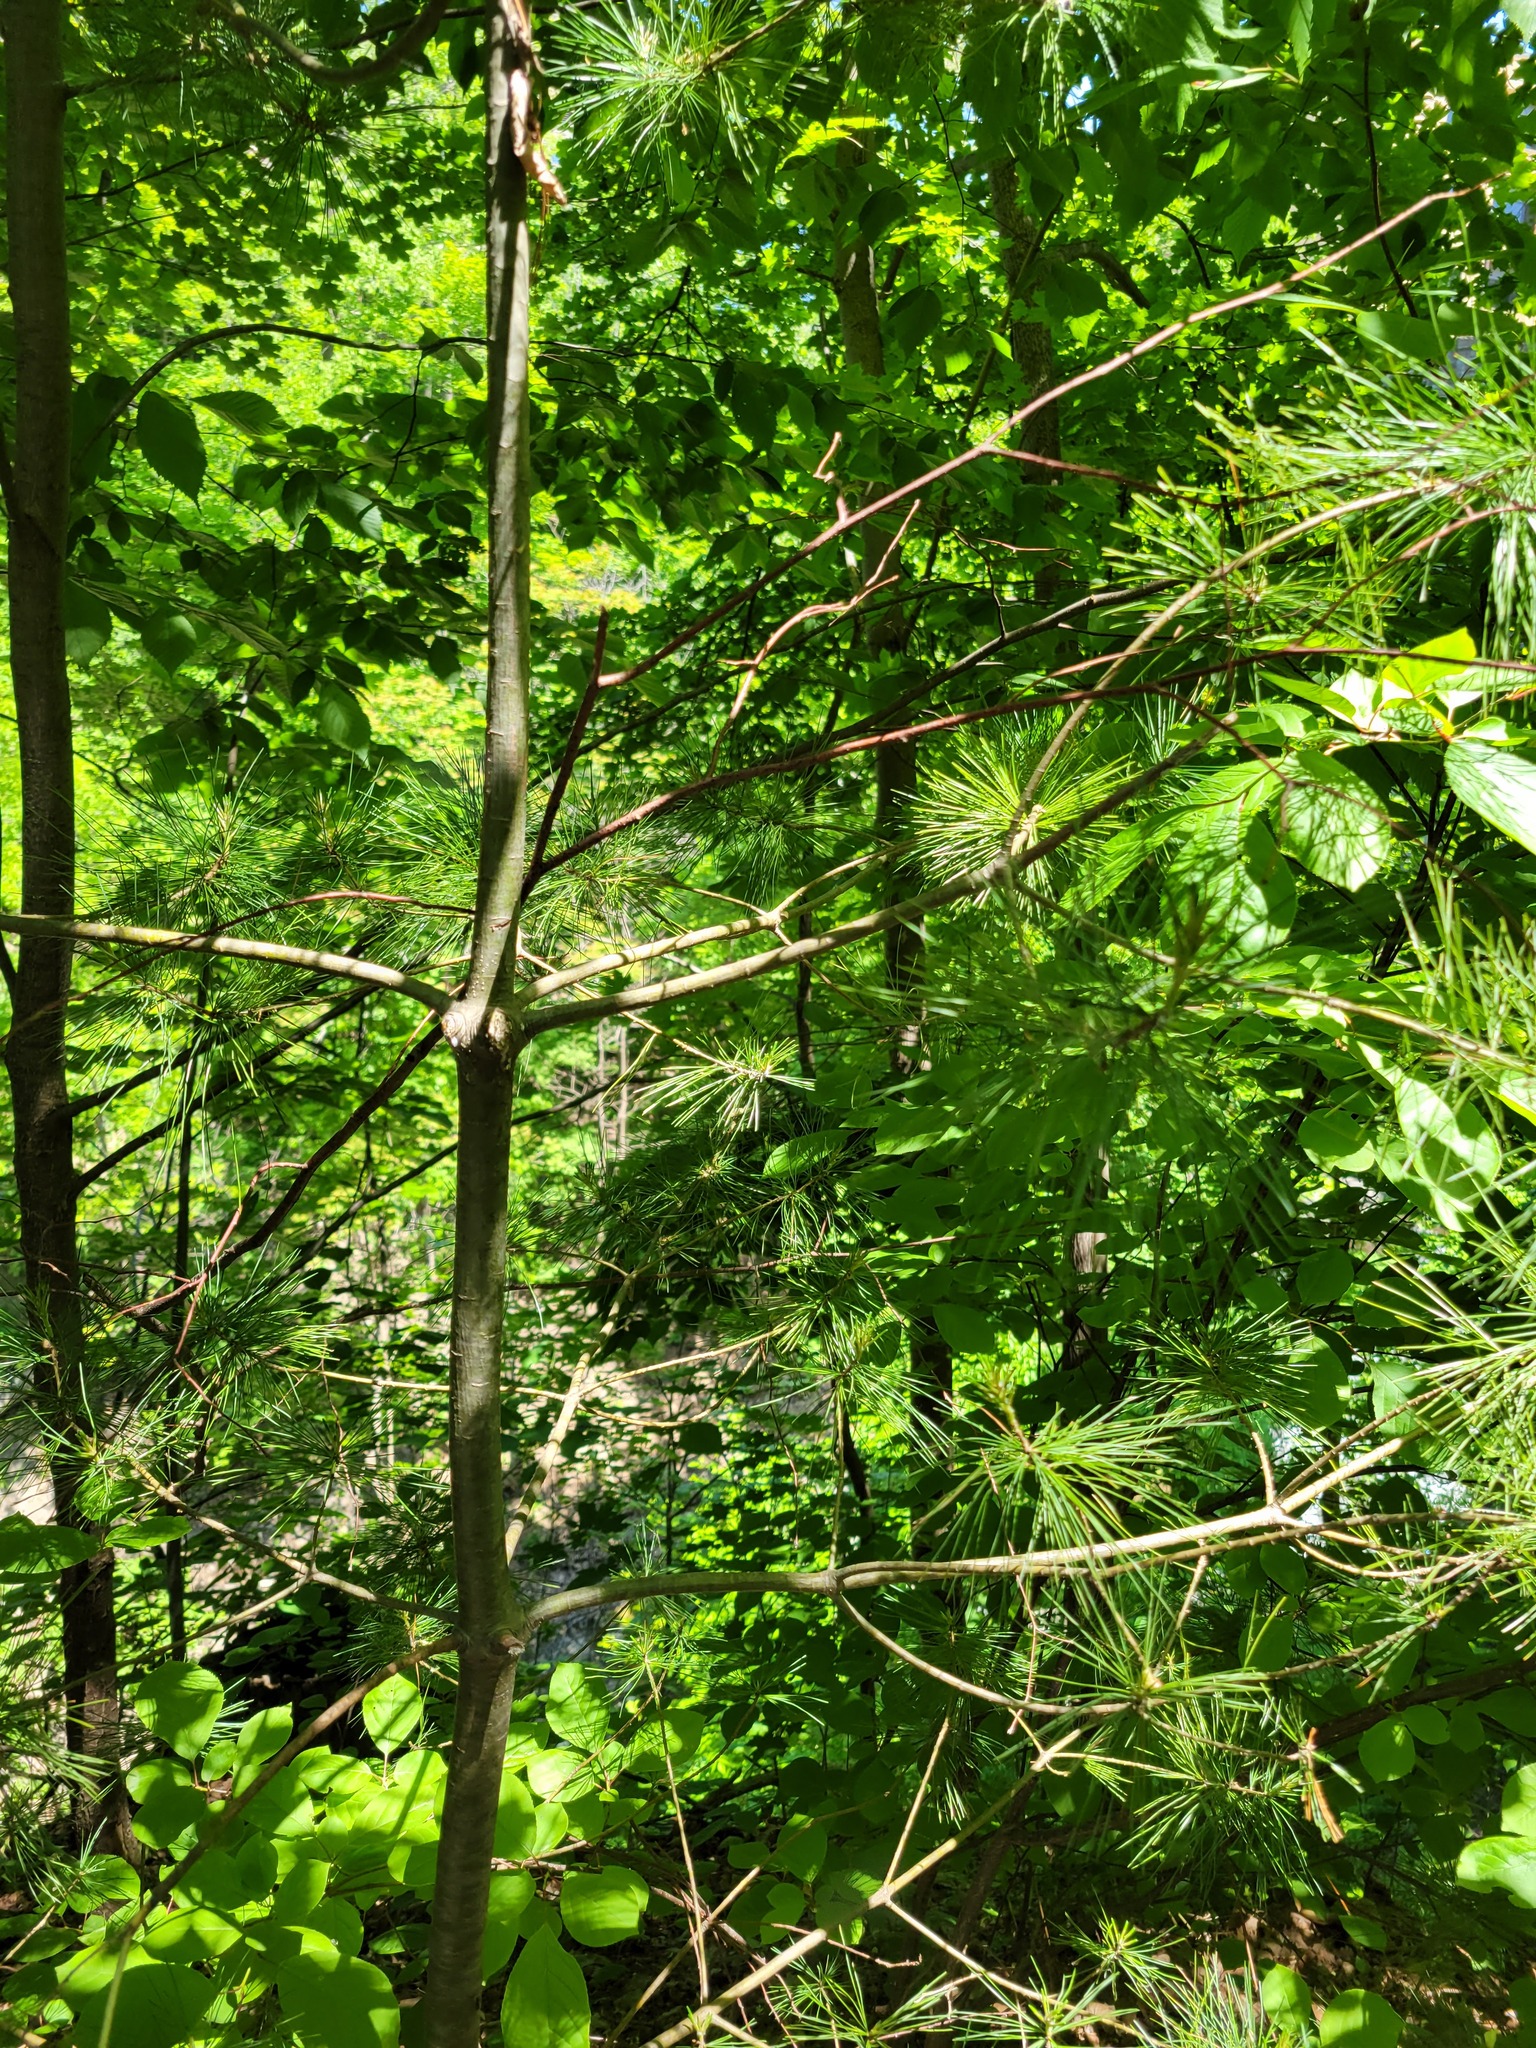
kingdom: Plantae
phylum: Tracheophyta
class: Pinopsida
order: Pinales
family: Pinaceae
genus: Pinus
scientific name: Pinus strobus
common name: Weymouth pine
